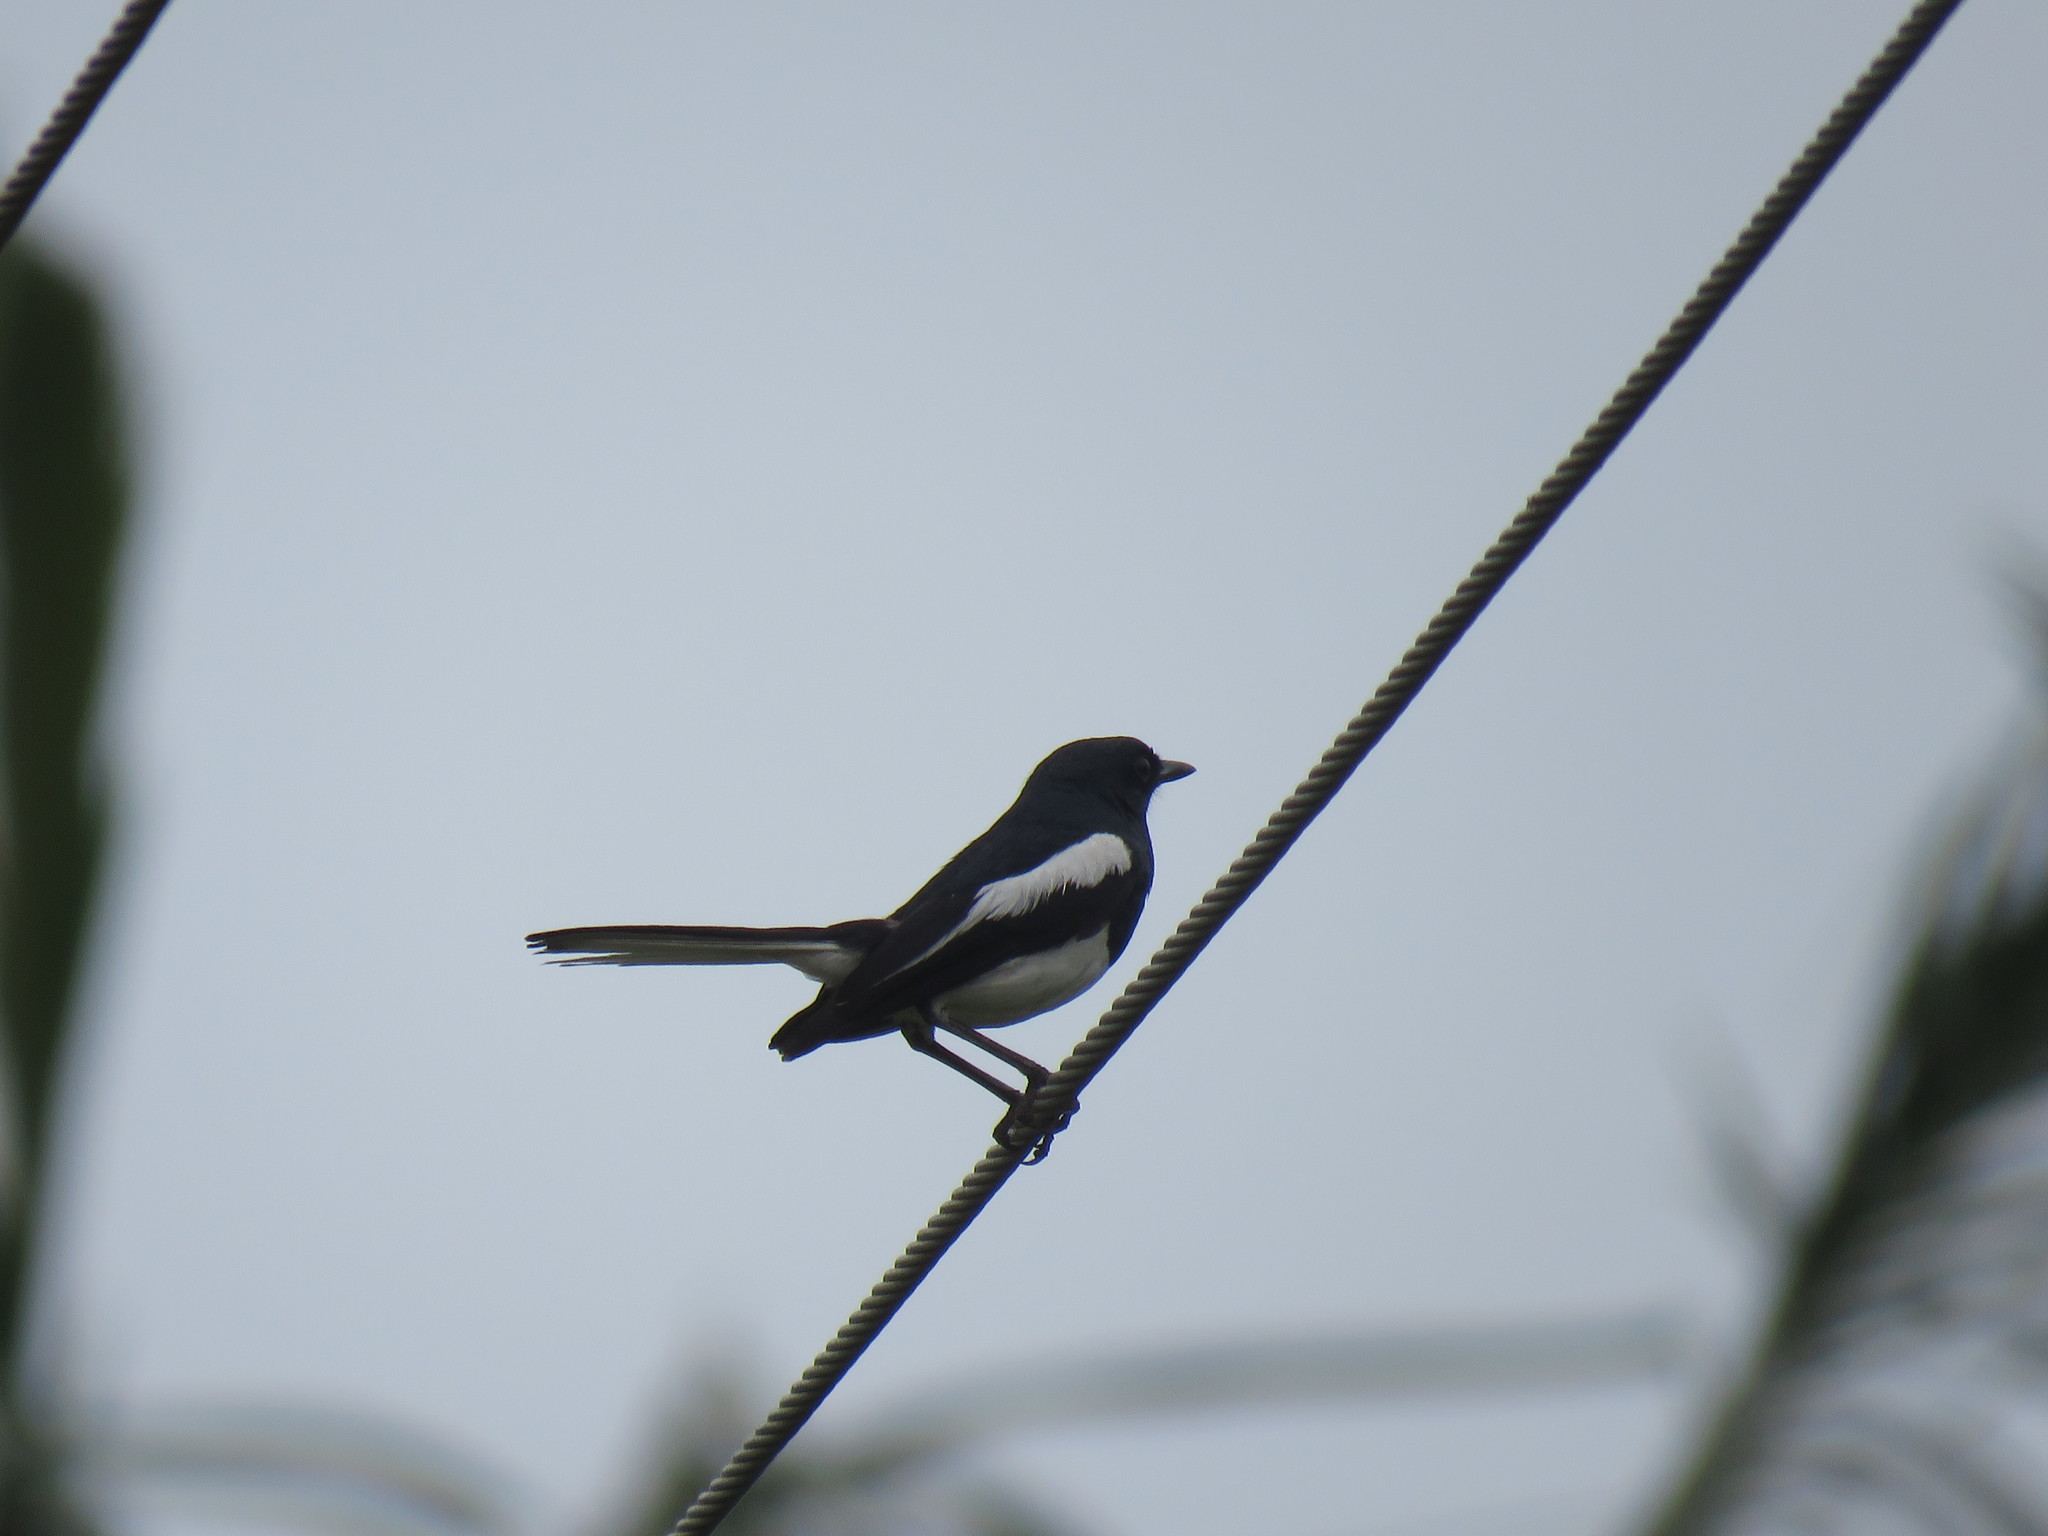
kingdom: Animalia
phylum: Chordata
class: Aves
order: Passeriformes
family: Muscicapidae
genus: Copsychus
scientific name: Copsychus saularis
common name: Oriental magpie-robin
